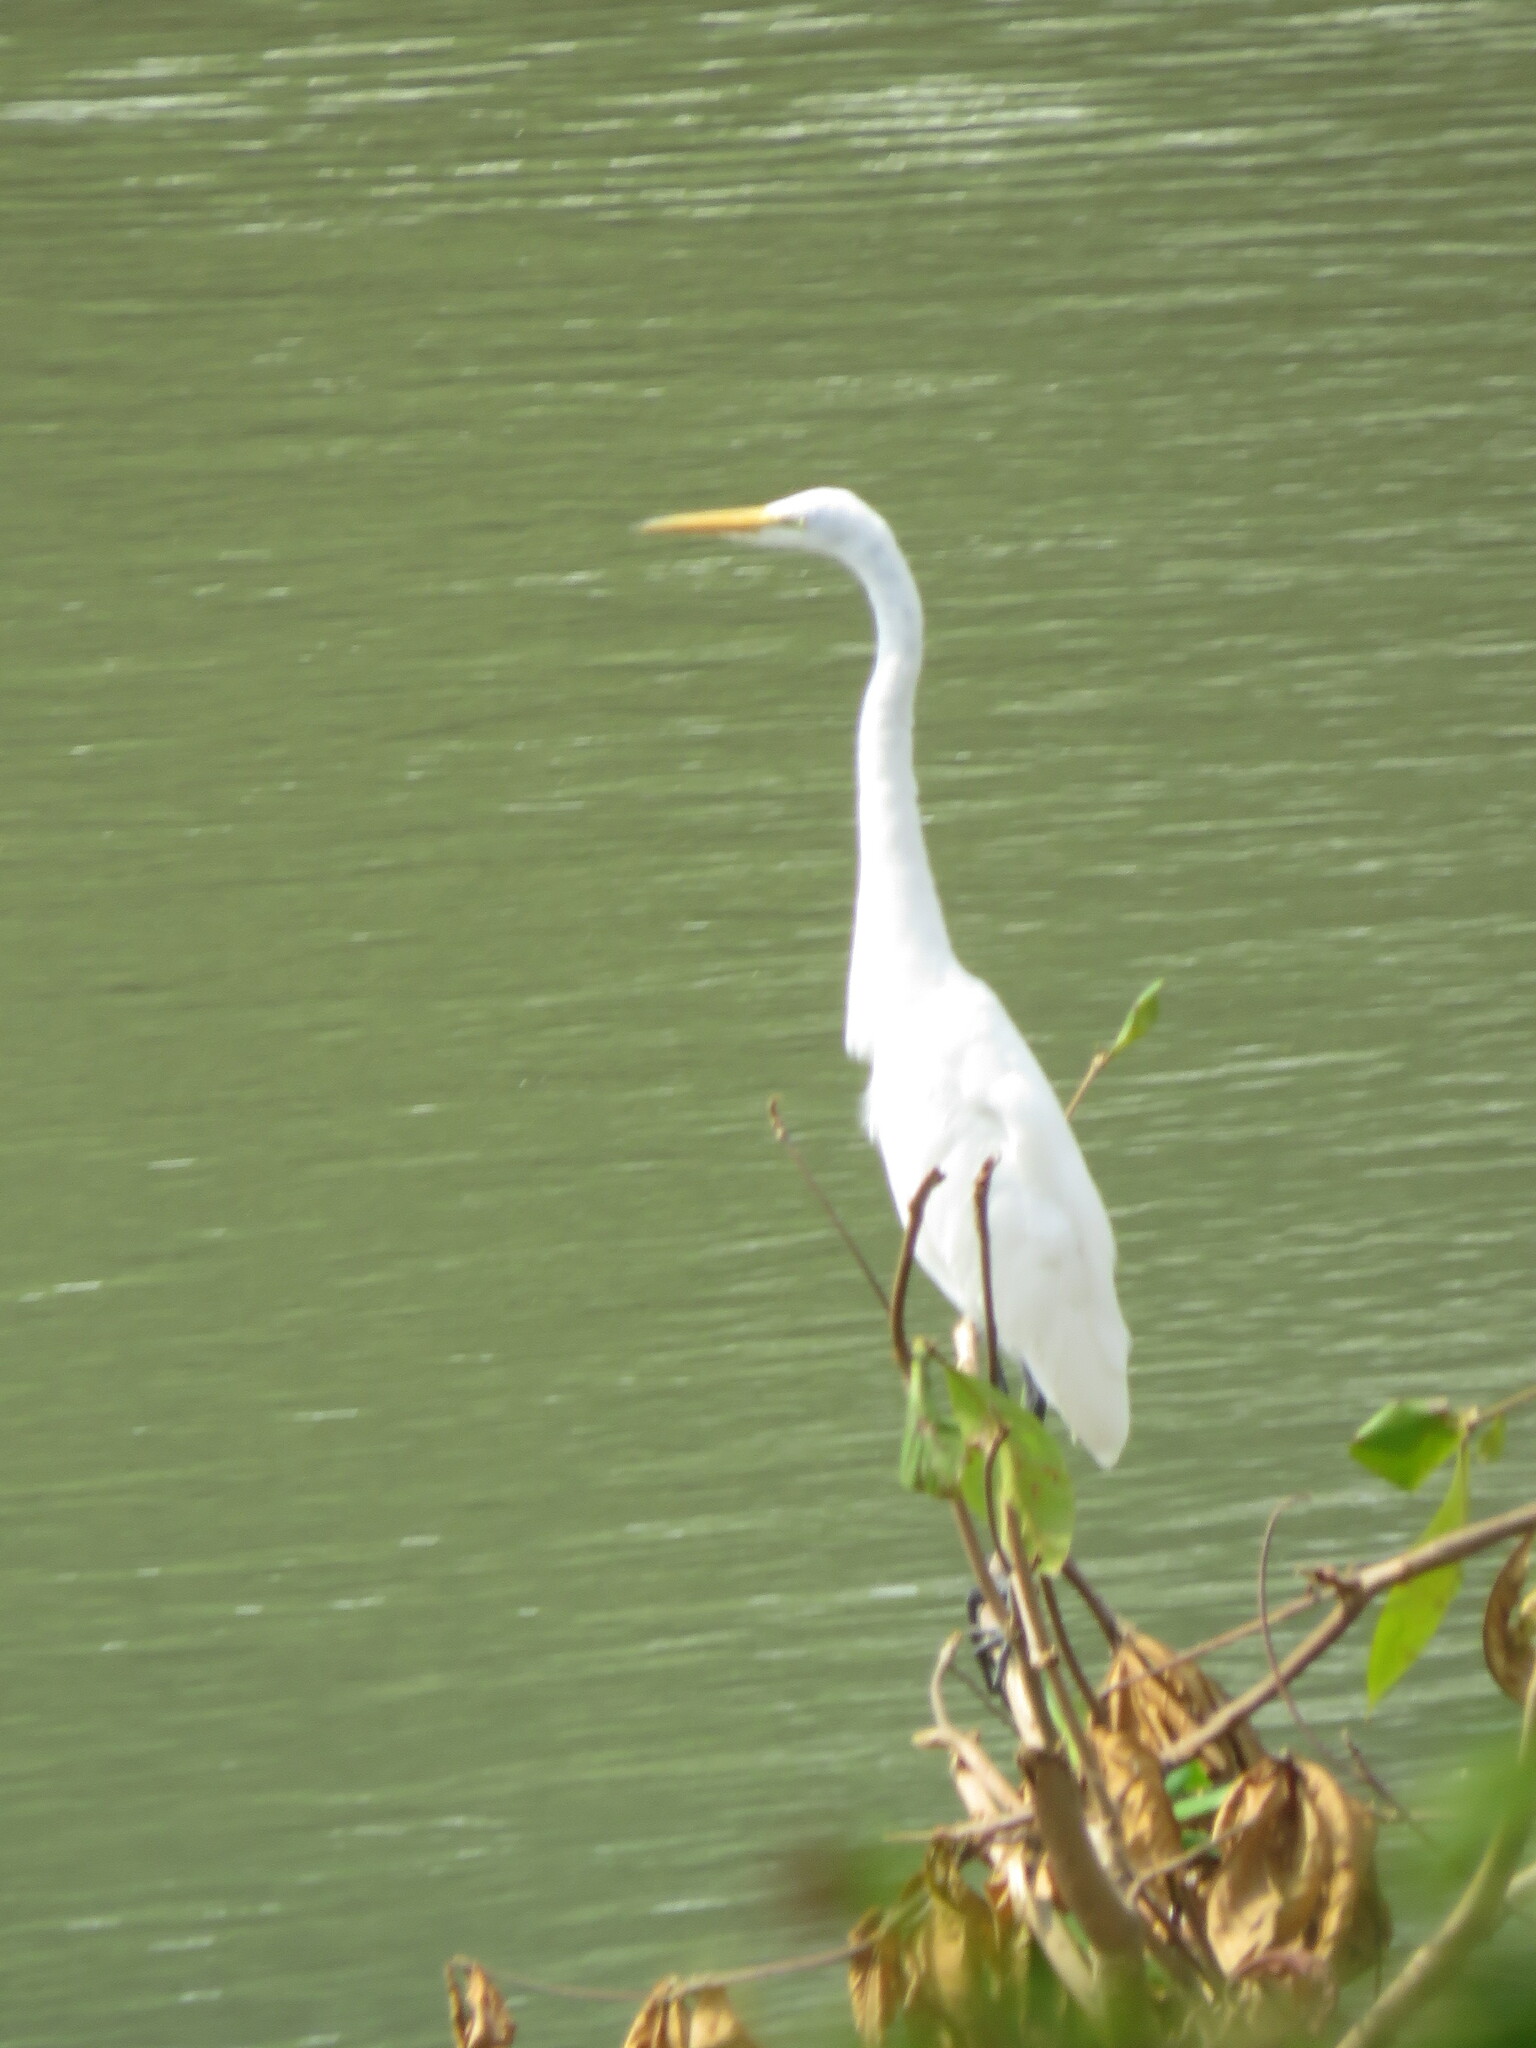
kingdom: Animalia
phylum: Chordata
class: Aves
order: Pelecaniformes
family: Ardeidae
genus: Ardea
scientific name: Ardea alba
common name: Great egret
